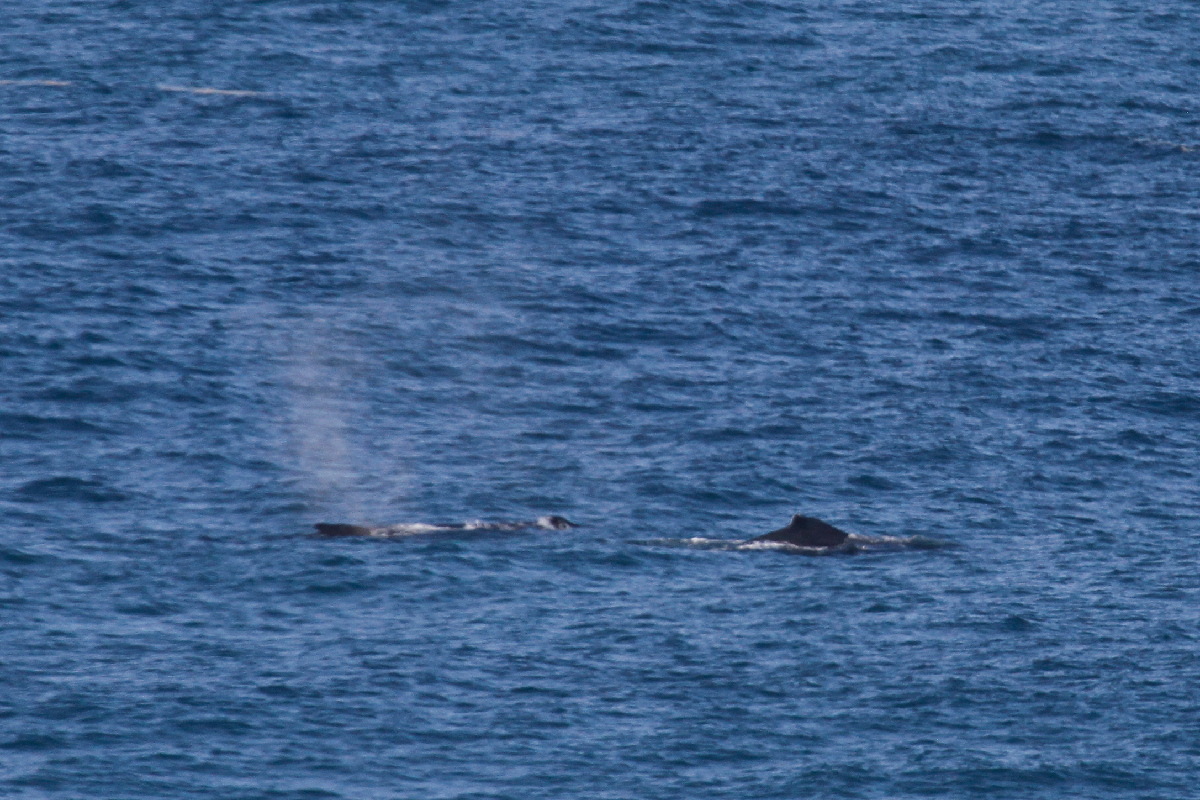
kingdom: Animalia
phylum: Chordata
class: Mammalia
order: Cetacea
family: Balaenopteridae
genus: Megaptera
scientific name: Megaptera novaeangliae
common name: Humpback whale
